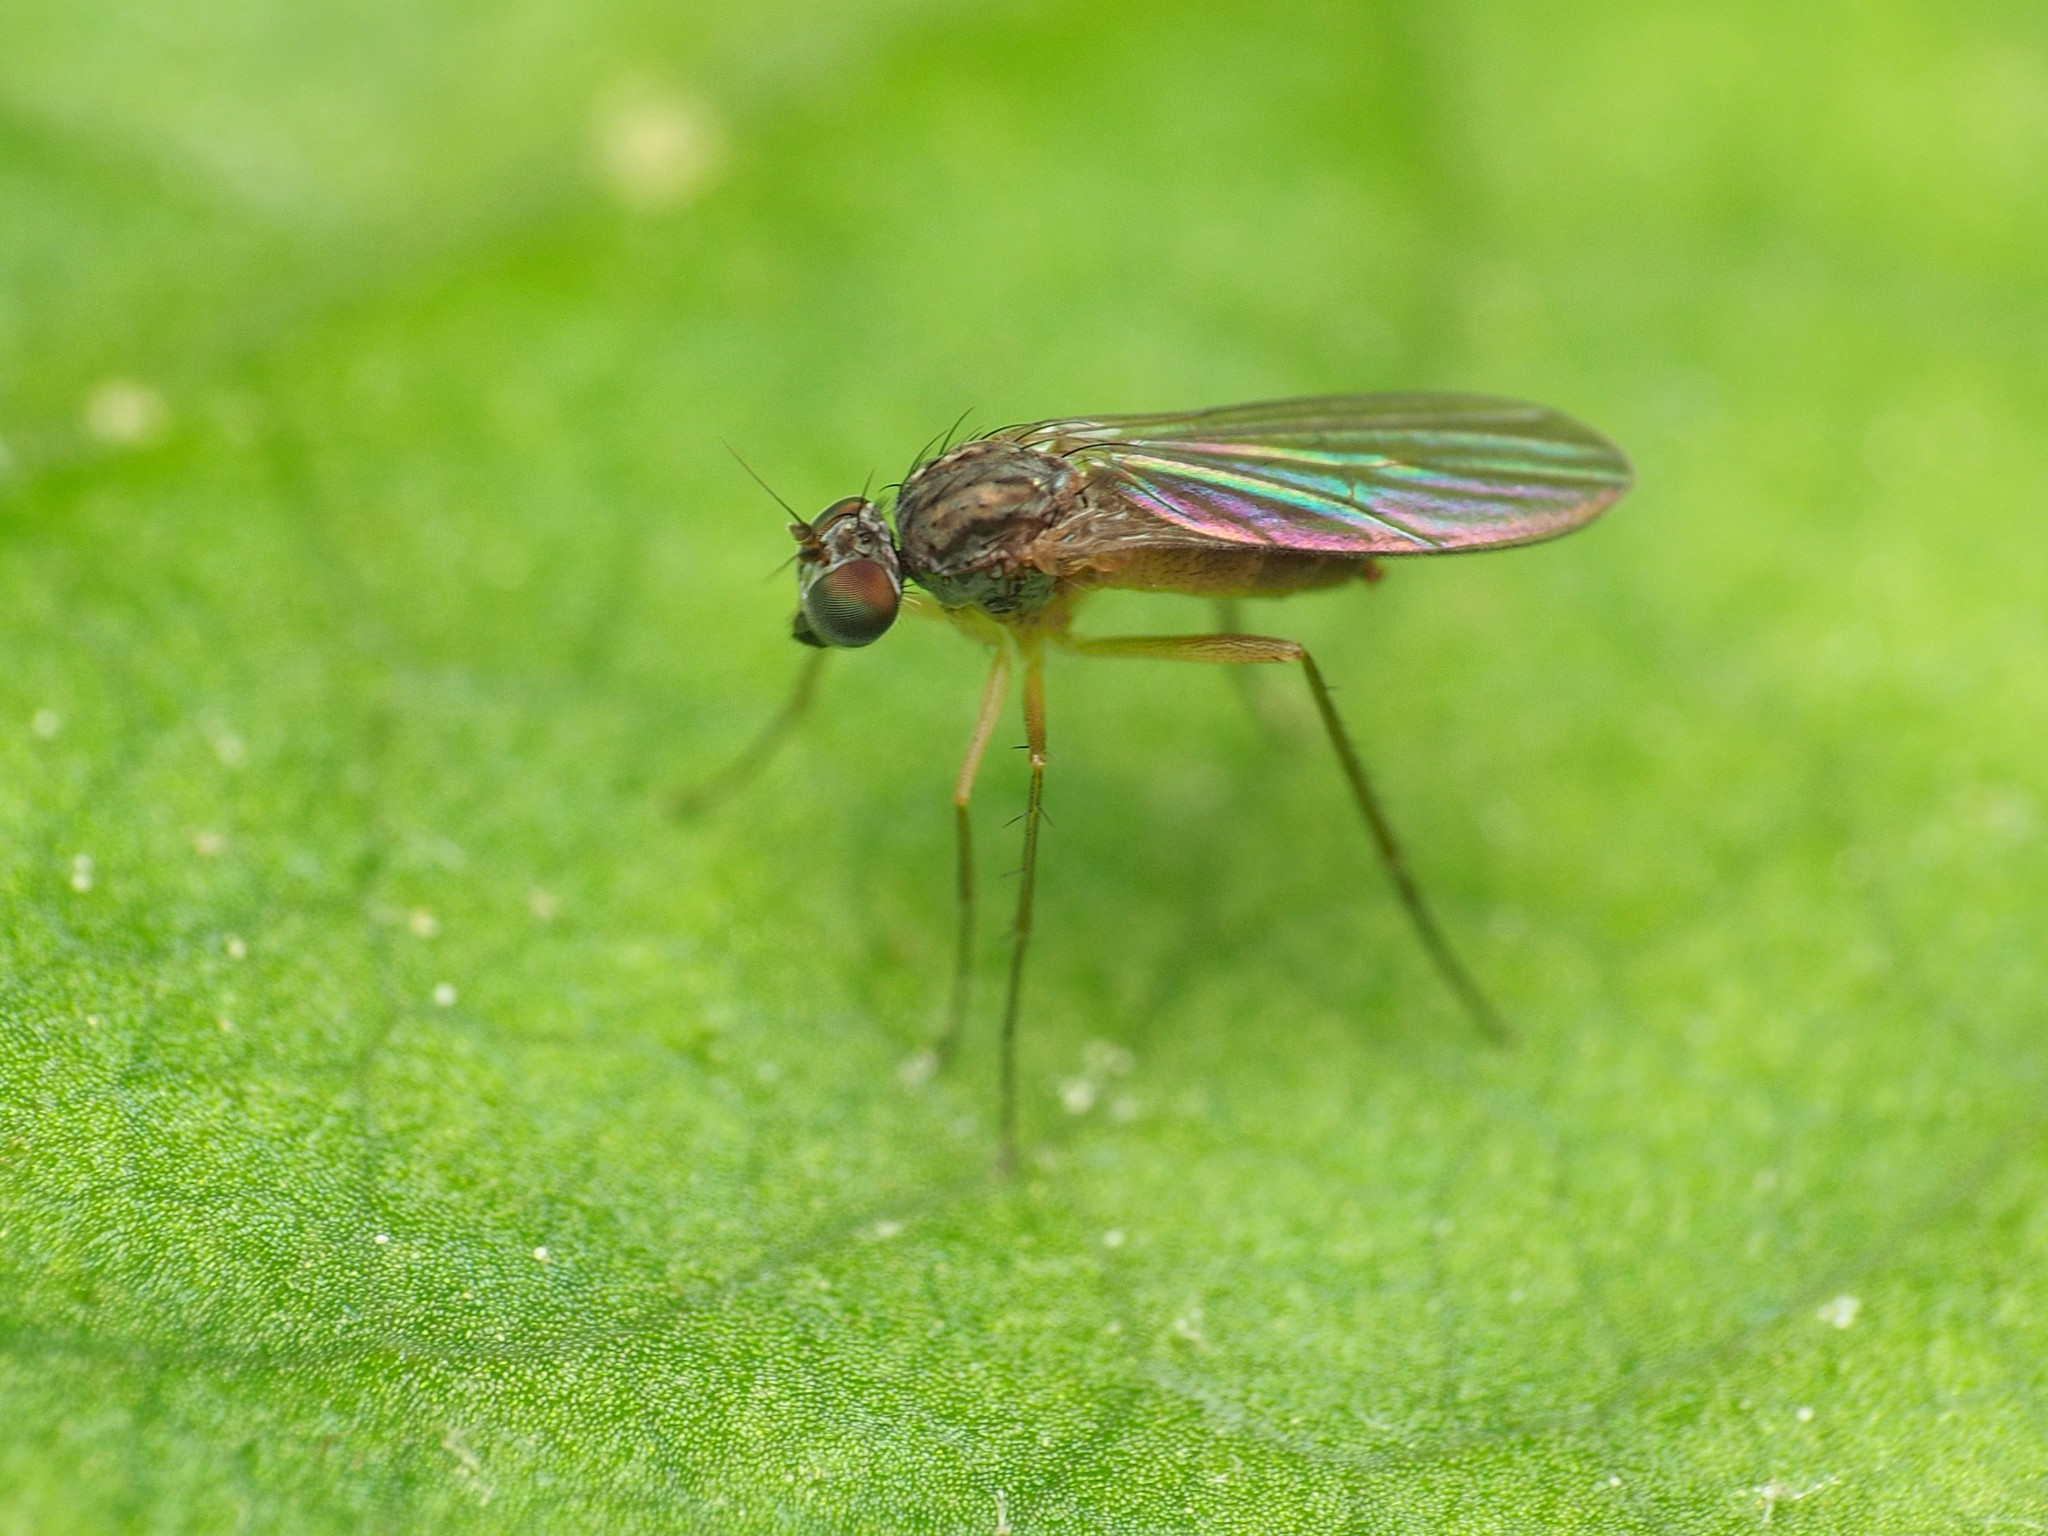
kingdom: Animalia
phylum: Arthropoda
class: Insecta
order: Diptera
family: Dolichopodidae
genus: Sympycnus
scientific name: Sympycnus lineatus
